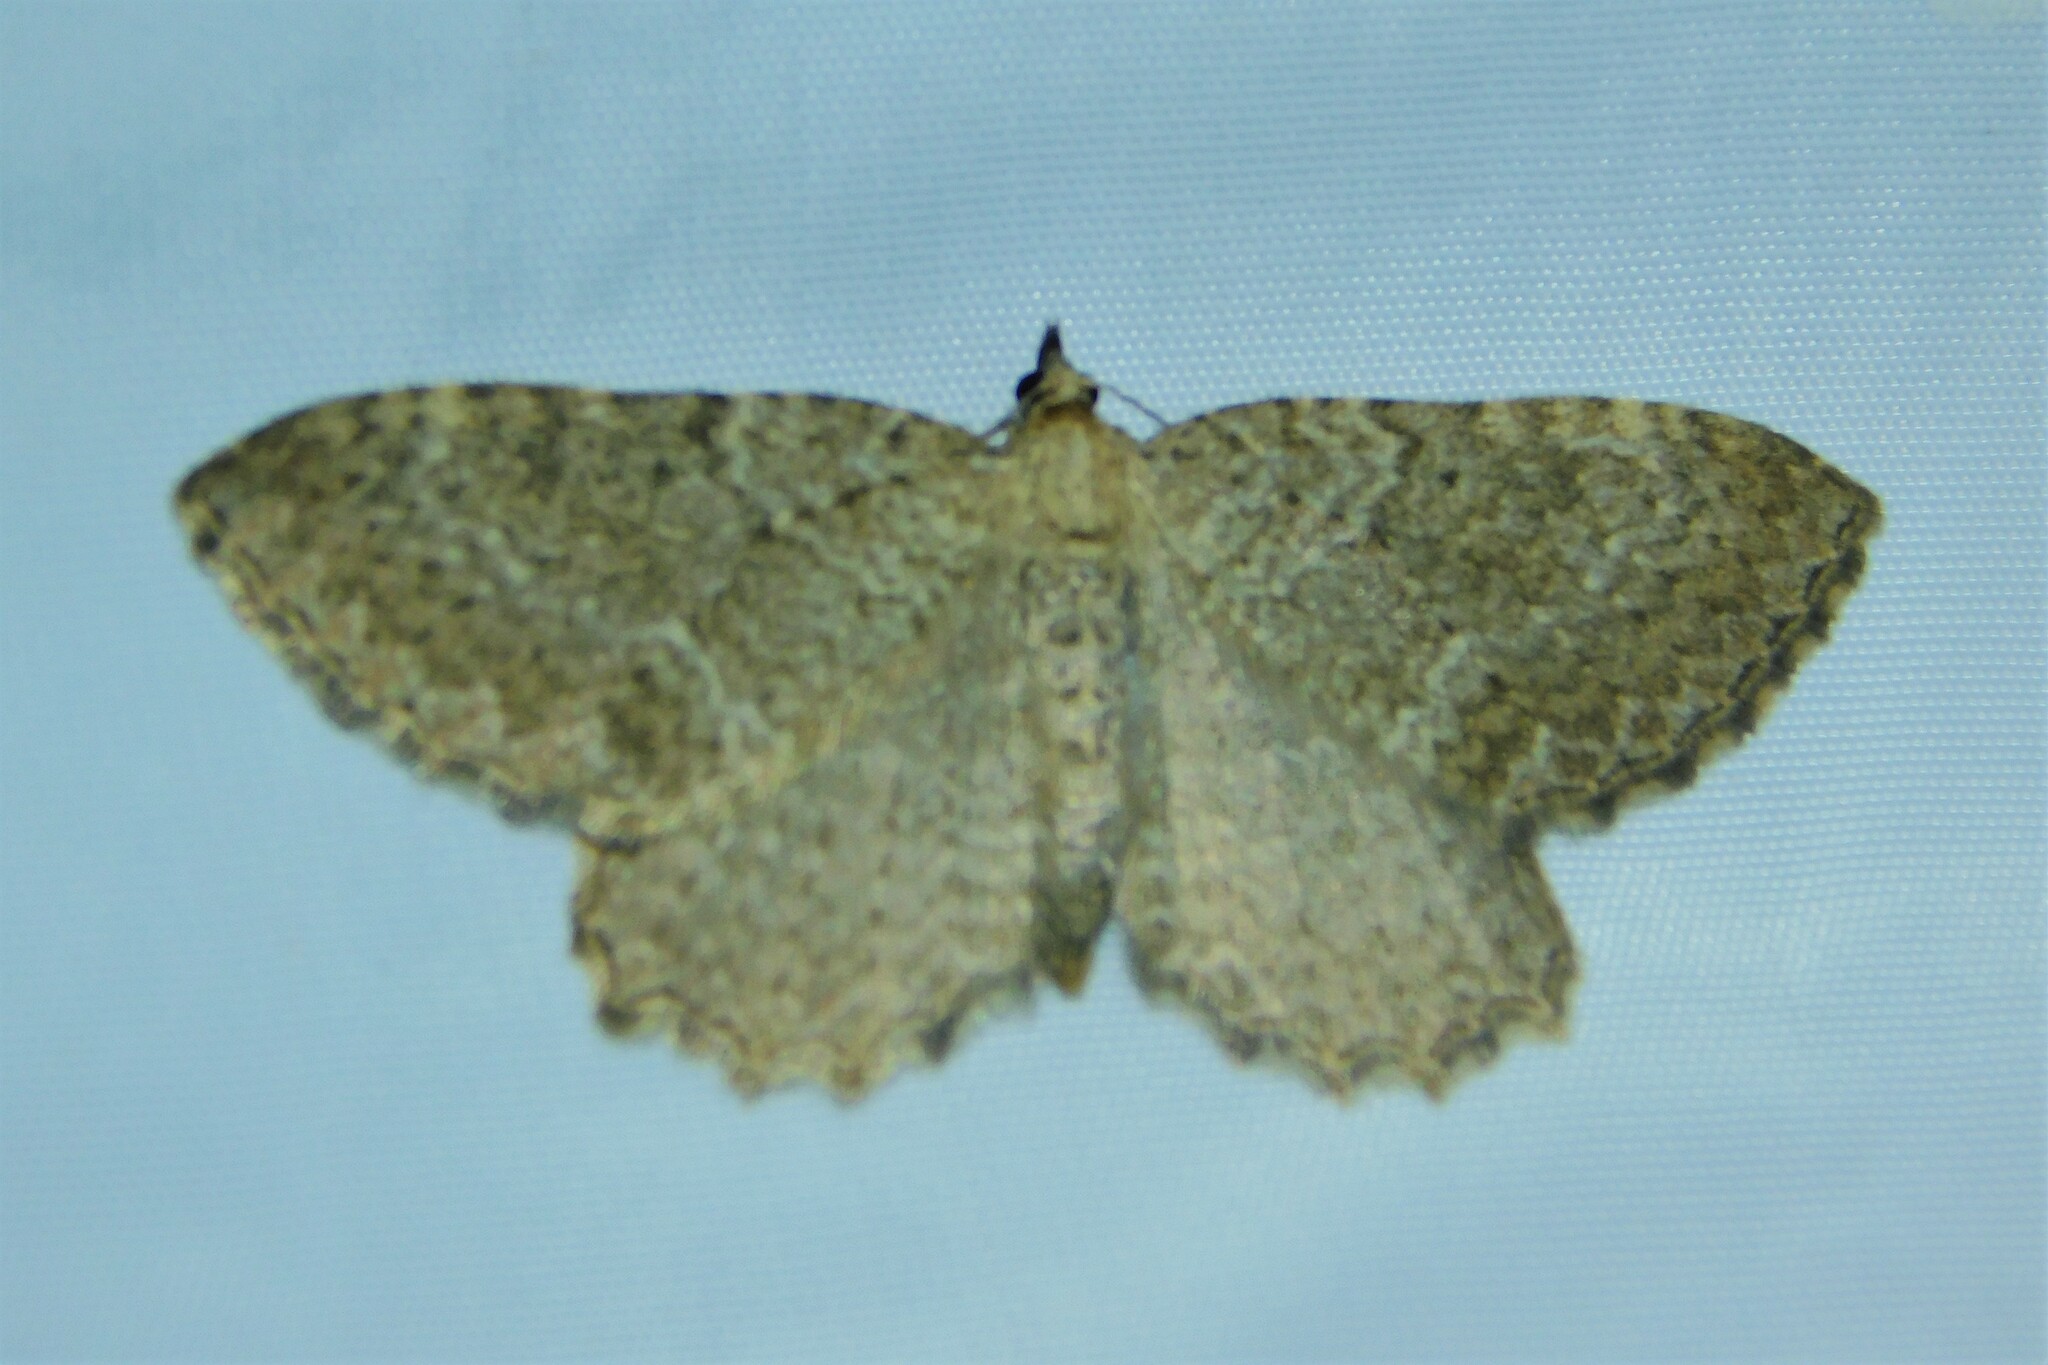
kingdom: Animalia
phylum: Arthropoda
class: Insecta
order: Lepidoptera
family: Geometridae
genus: Philereme
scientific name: Philereme vetulata
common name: Brown scallop
